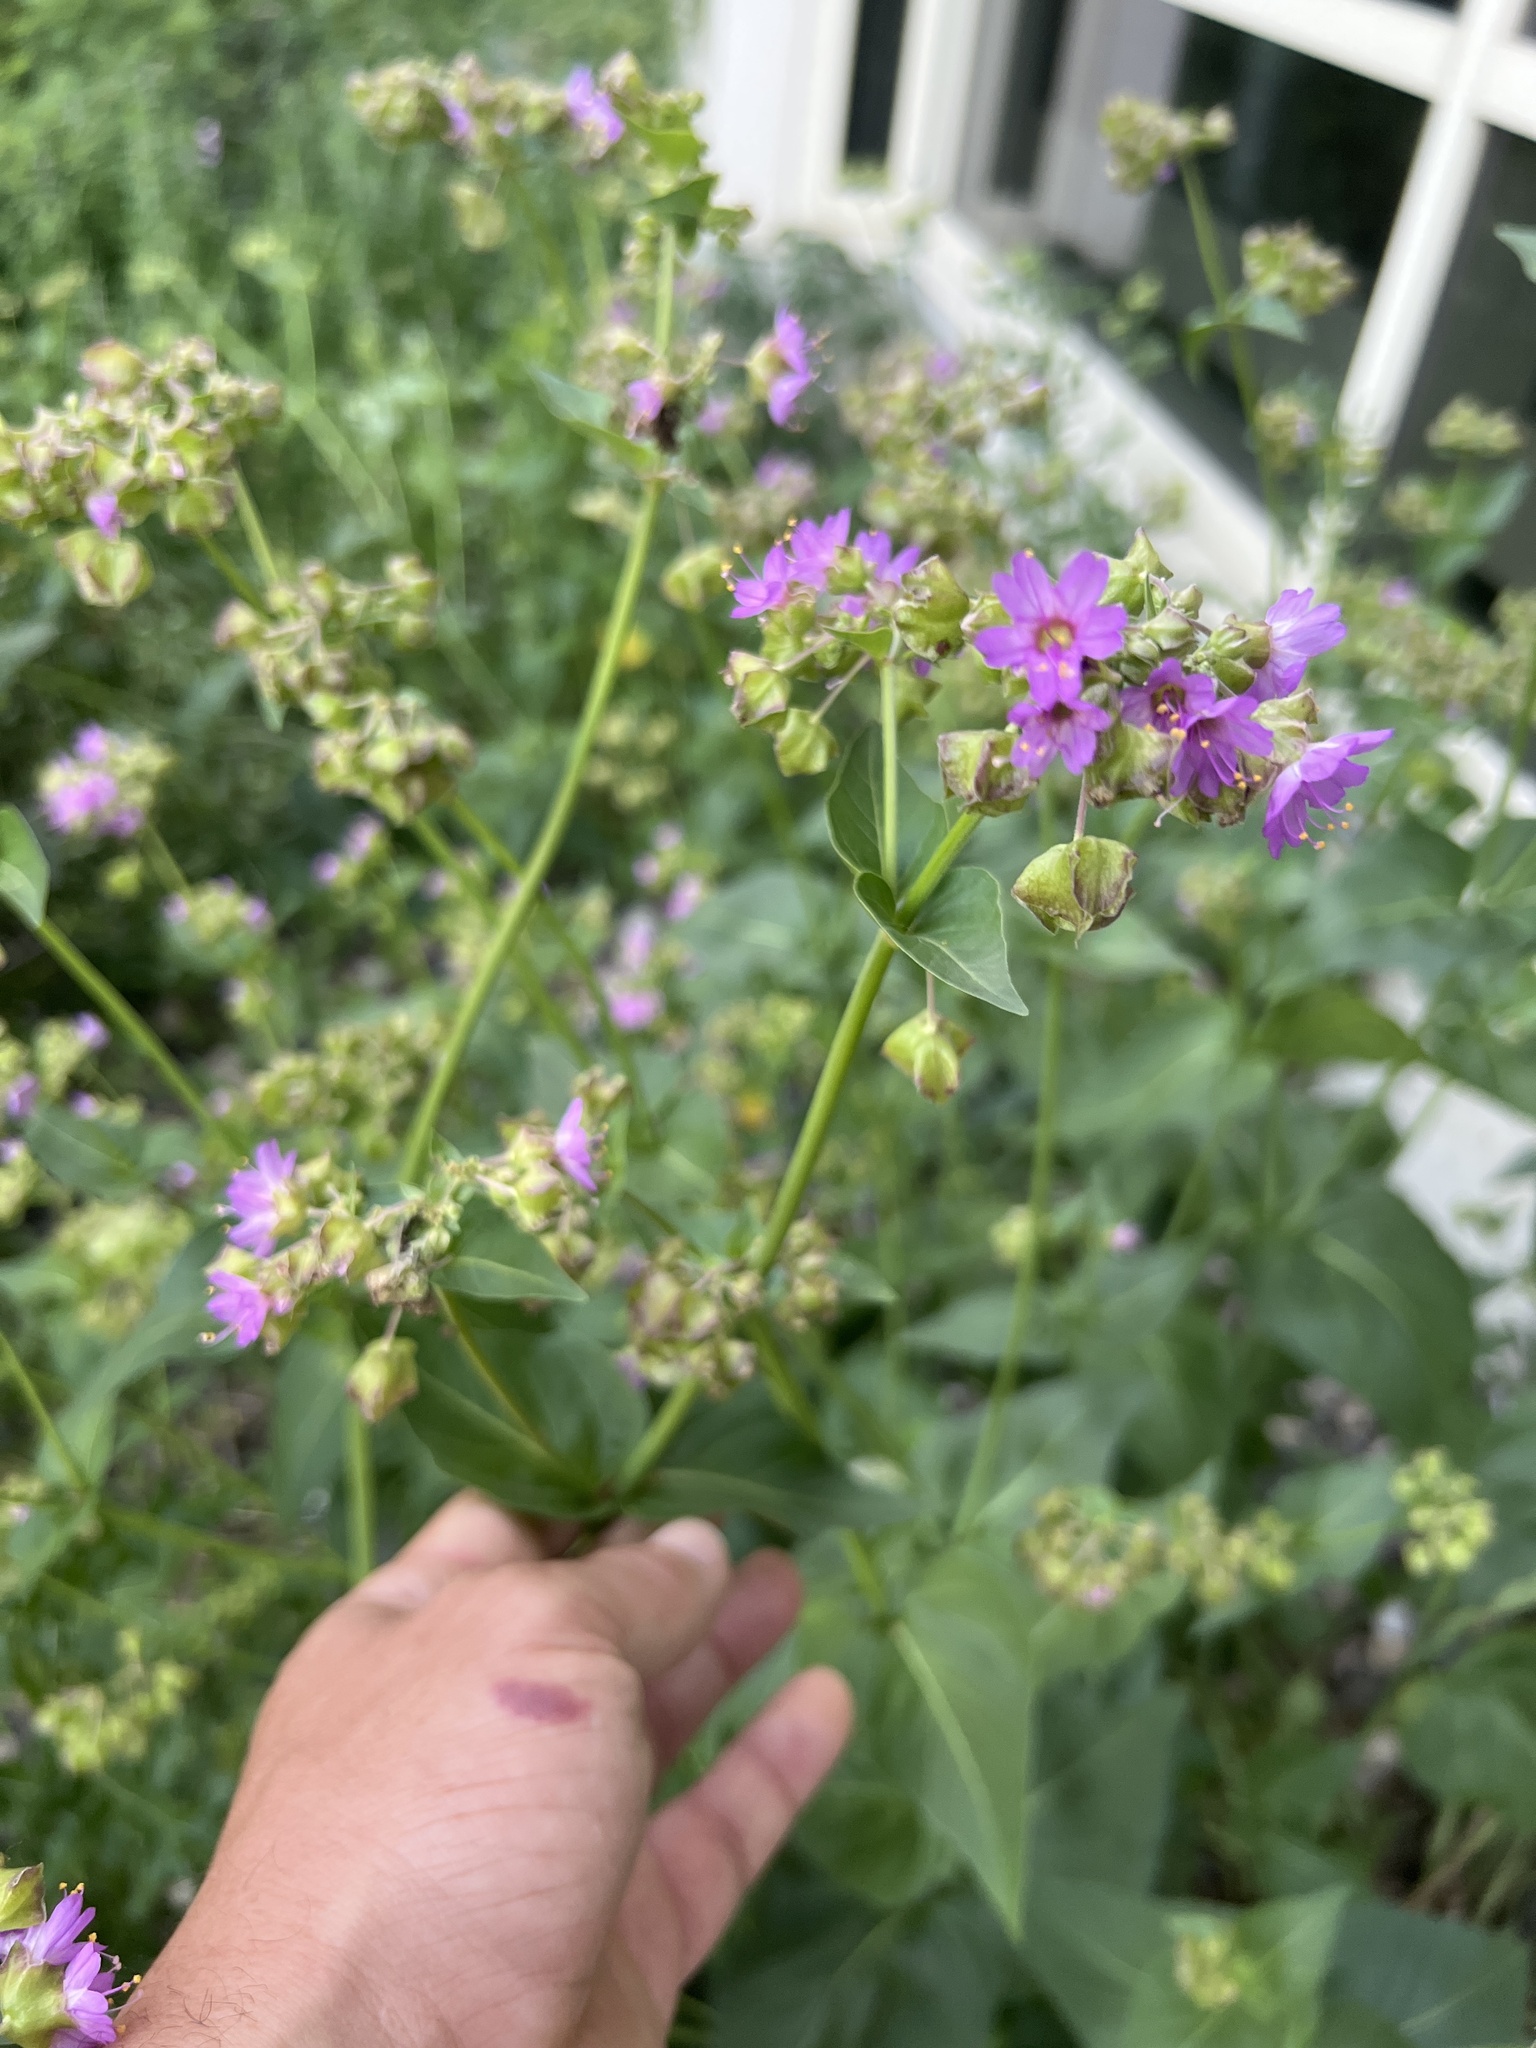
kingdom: Plantae
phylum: Tracheophyta
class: Magnoliopsida
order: Caryophyllales
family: Nyctaginaceae
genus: Mirabilis
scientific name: Mirabilis nyctaginea
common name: Umbrella wort
